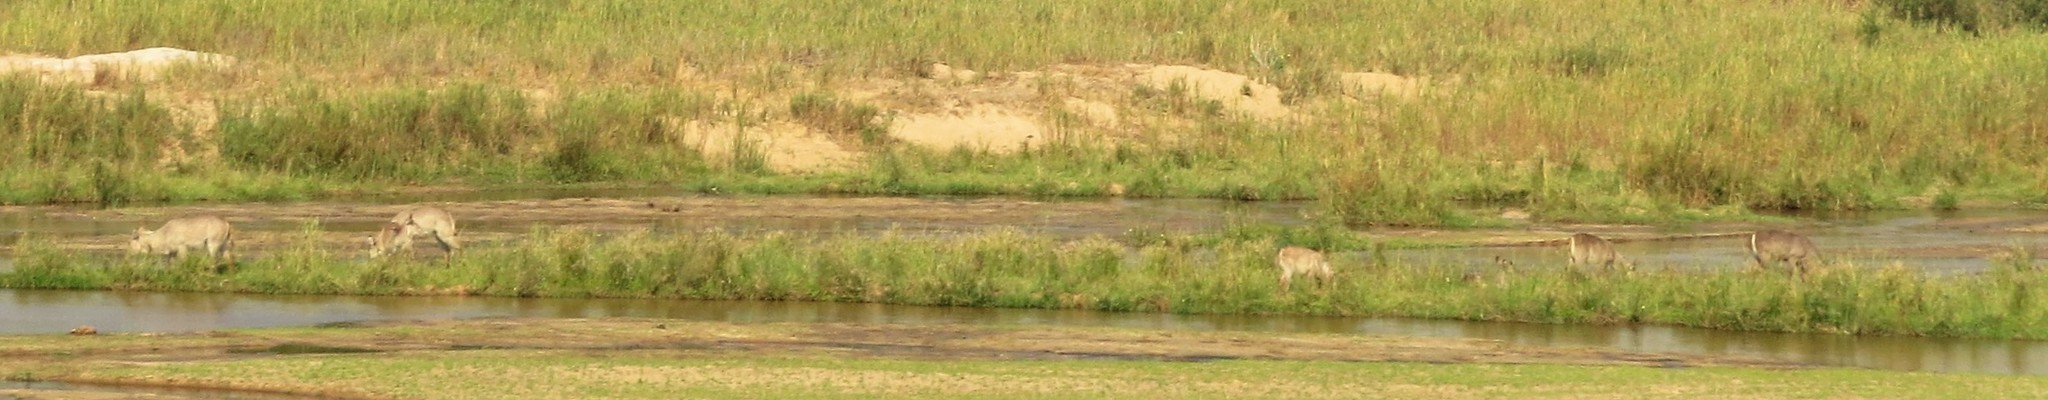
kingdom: Animalia
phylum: Chordata
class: Mammalia
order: Artiodactyla
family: Bovidae
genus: Kobus
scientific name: Kobus ellipsiprymnus
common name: Waterbuck
